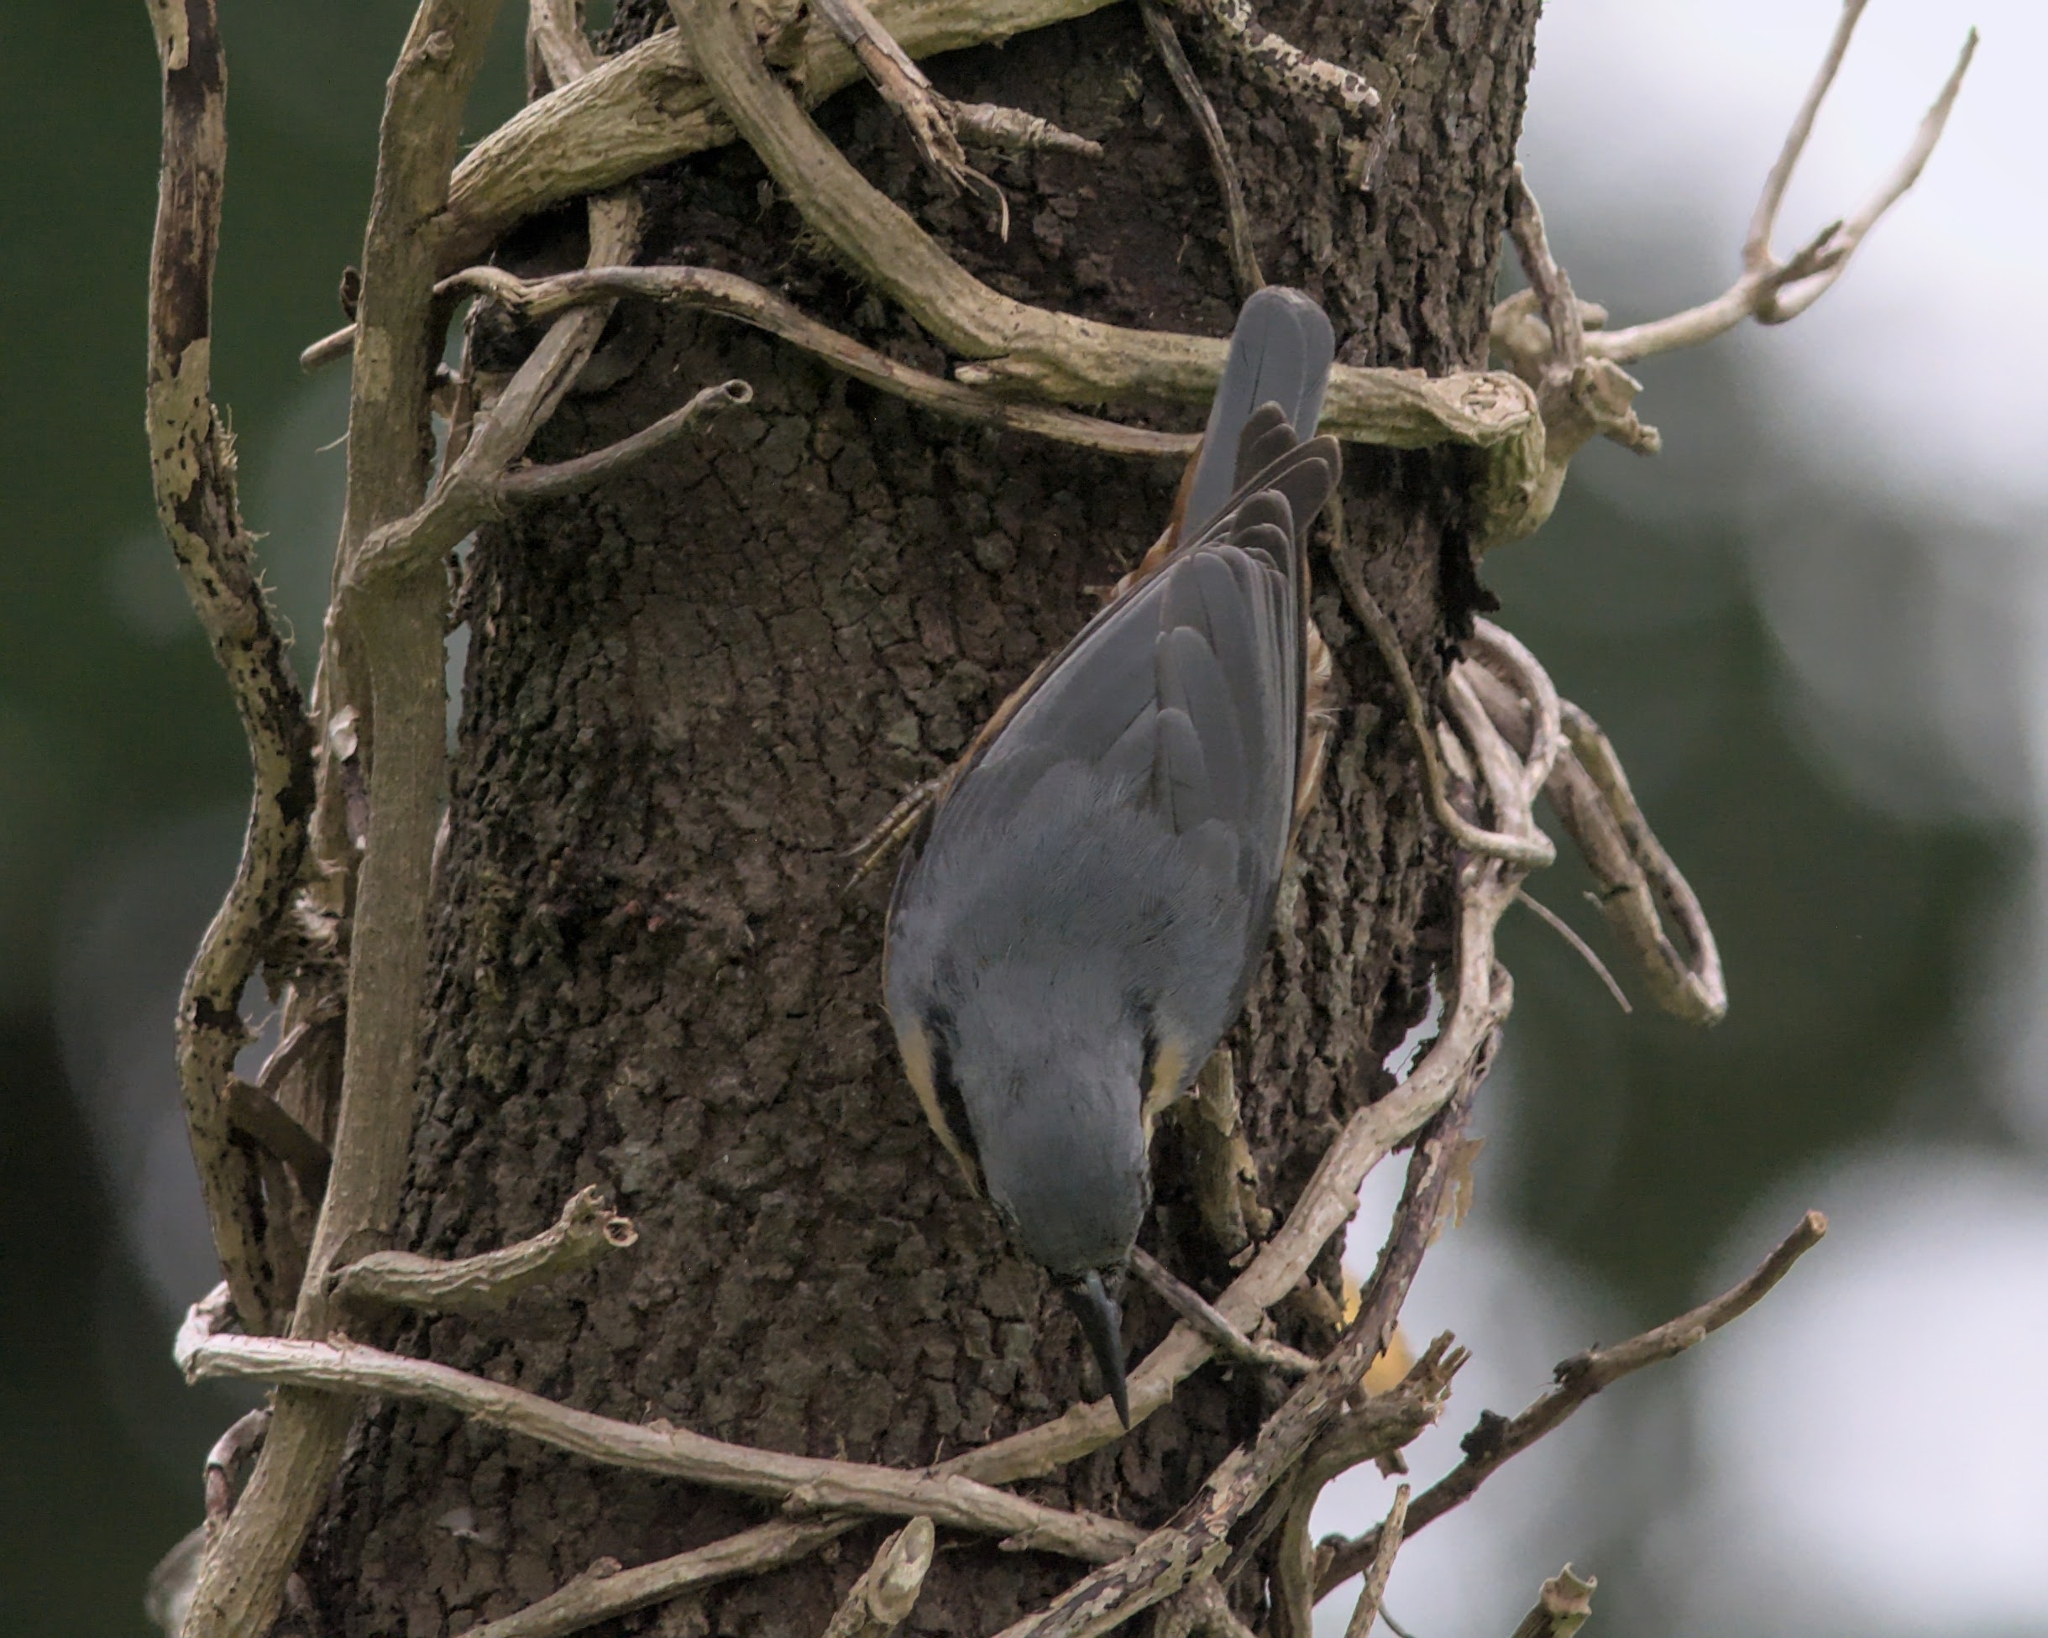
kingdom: Animalia
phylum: Chordata
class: Aves
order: Passeriformes
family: Sittidae
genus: Sitta
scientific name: Sitta europaea
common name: Eurasian nuthatch
